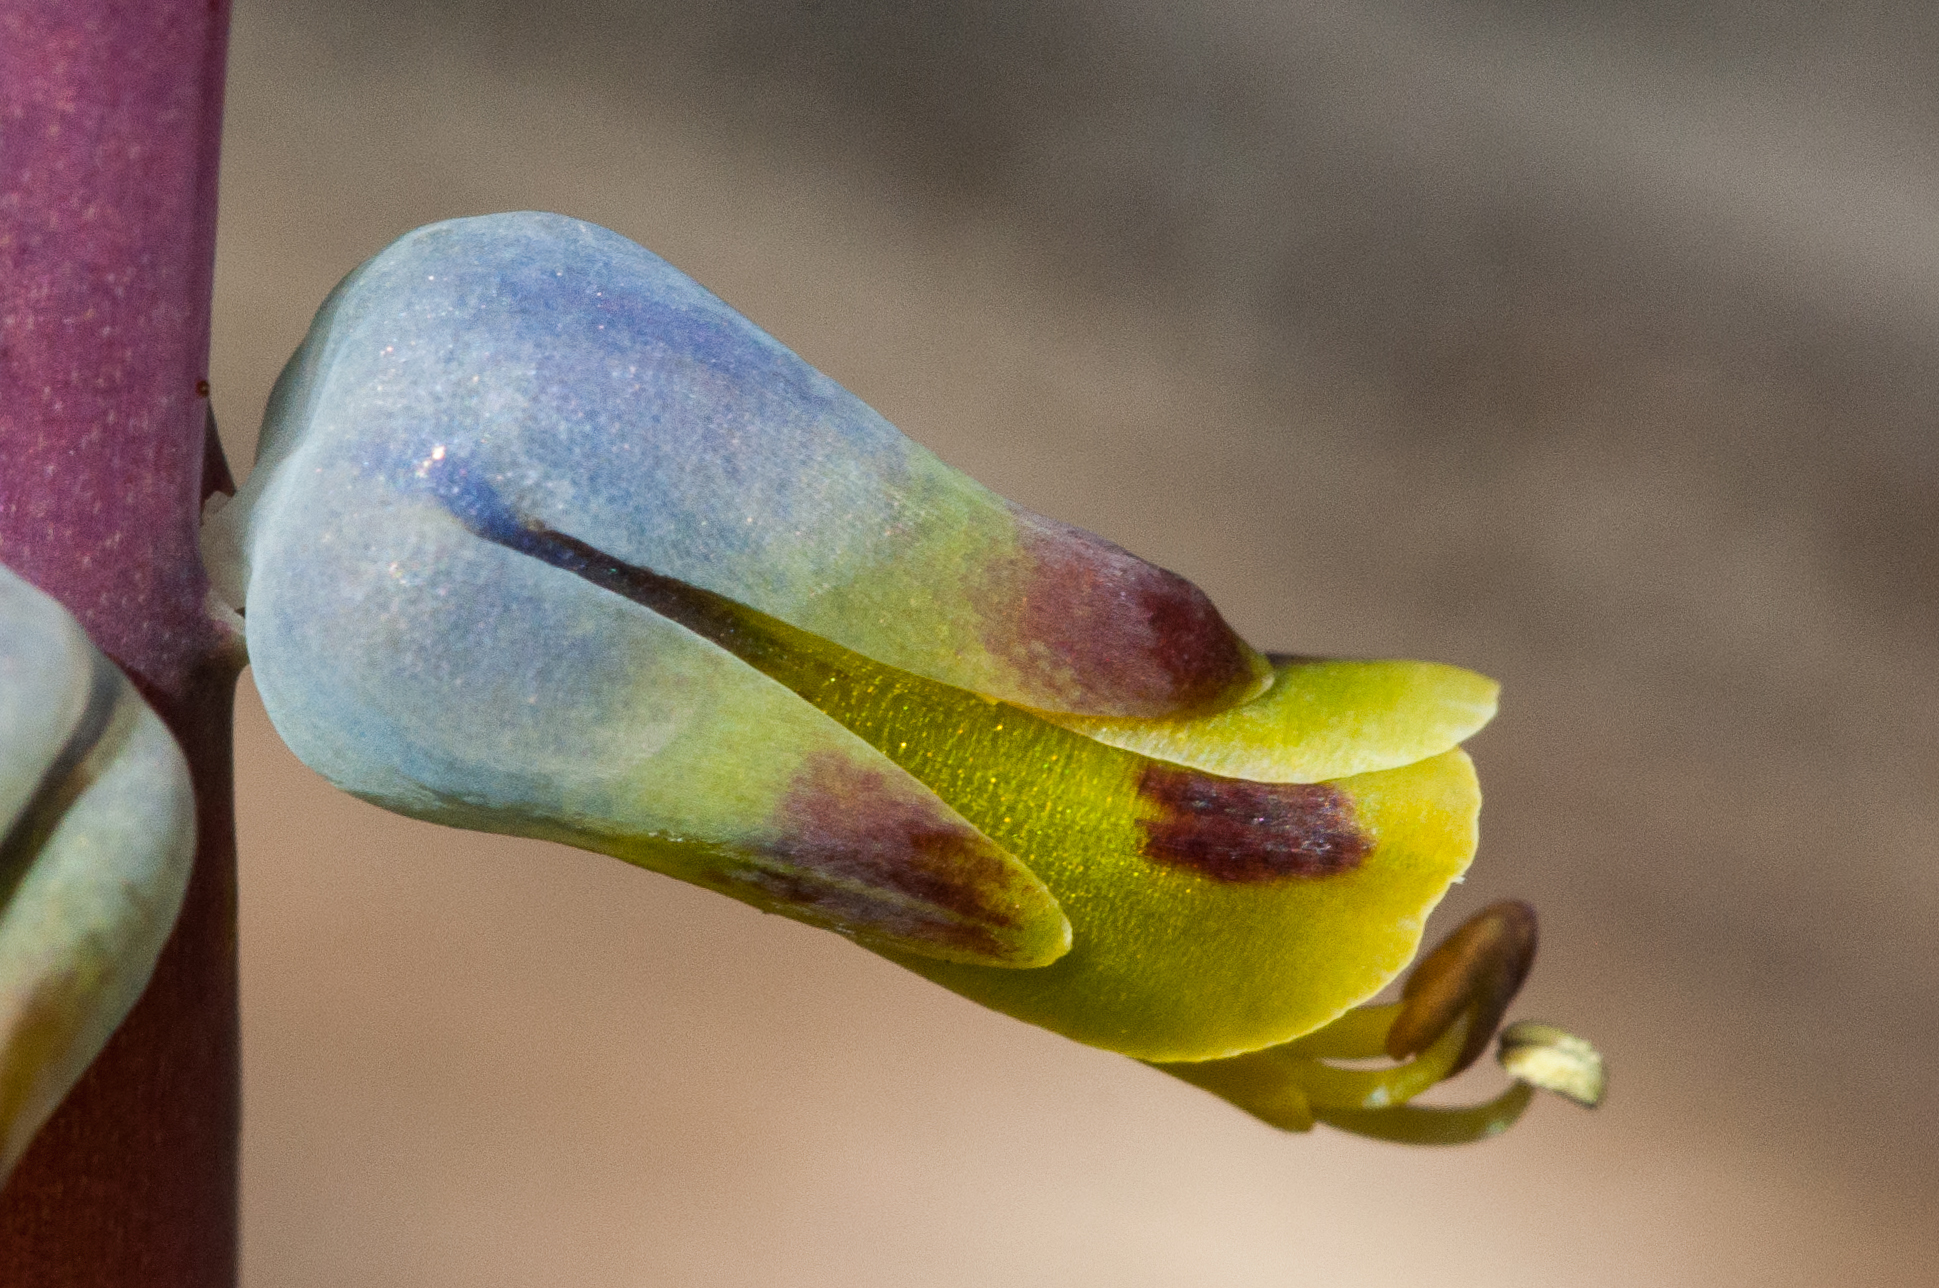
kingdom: Plantae
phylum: Tracheophyta
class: Liliopsida
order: Asparagales
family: Asparagaceae
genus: Lachenalia
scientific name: Lachenalia mutabilis
